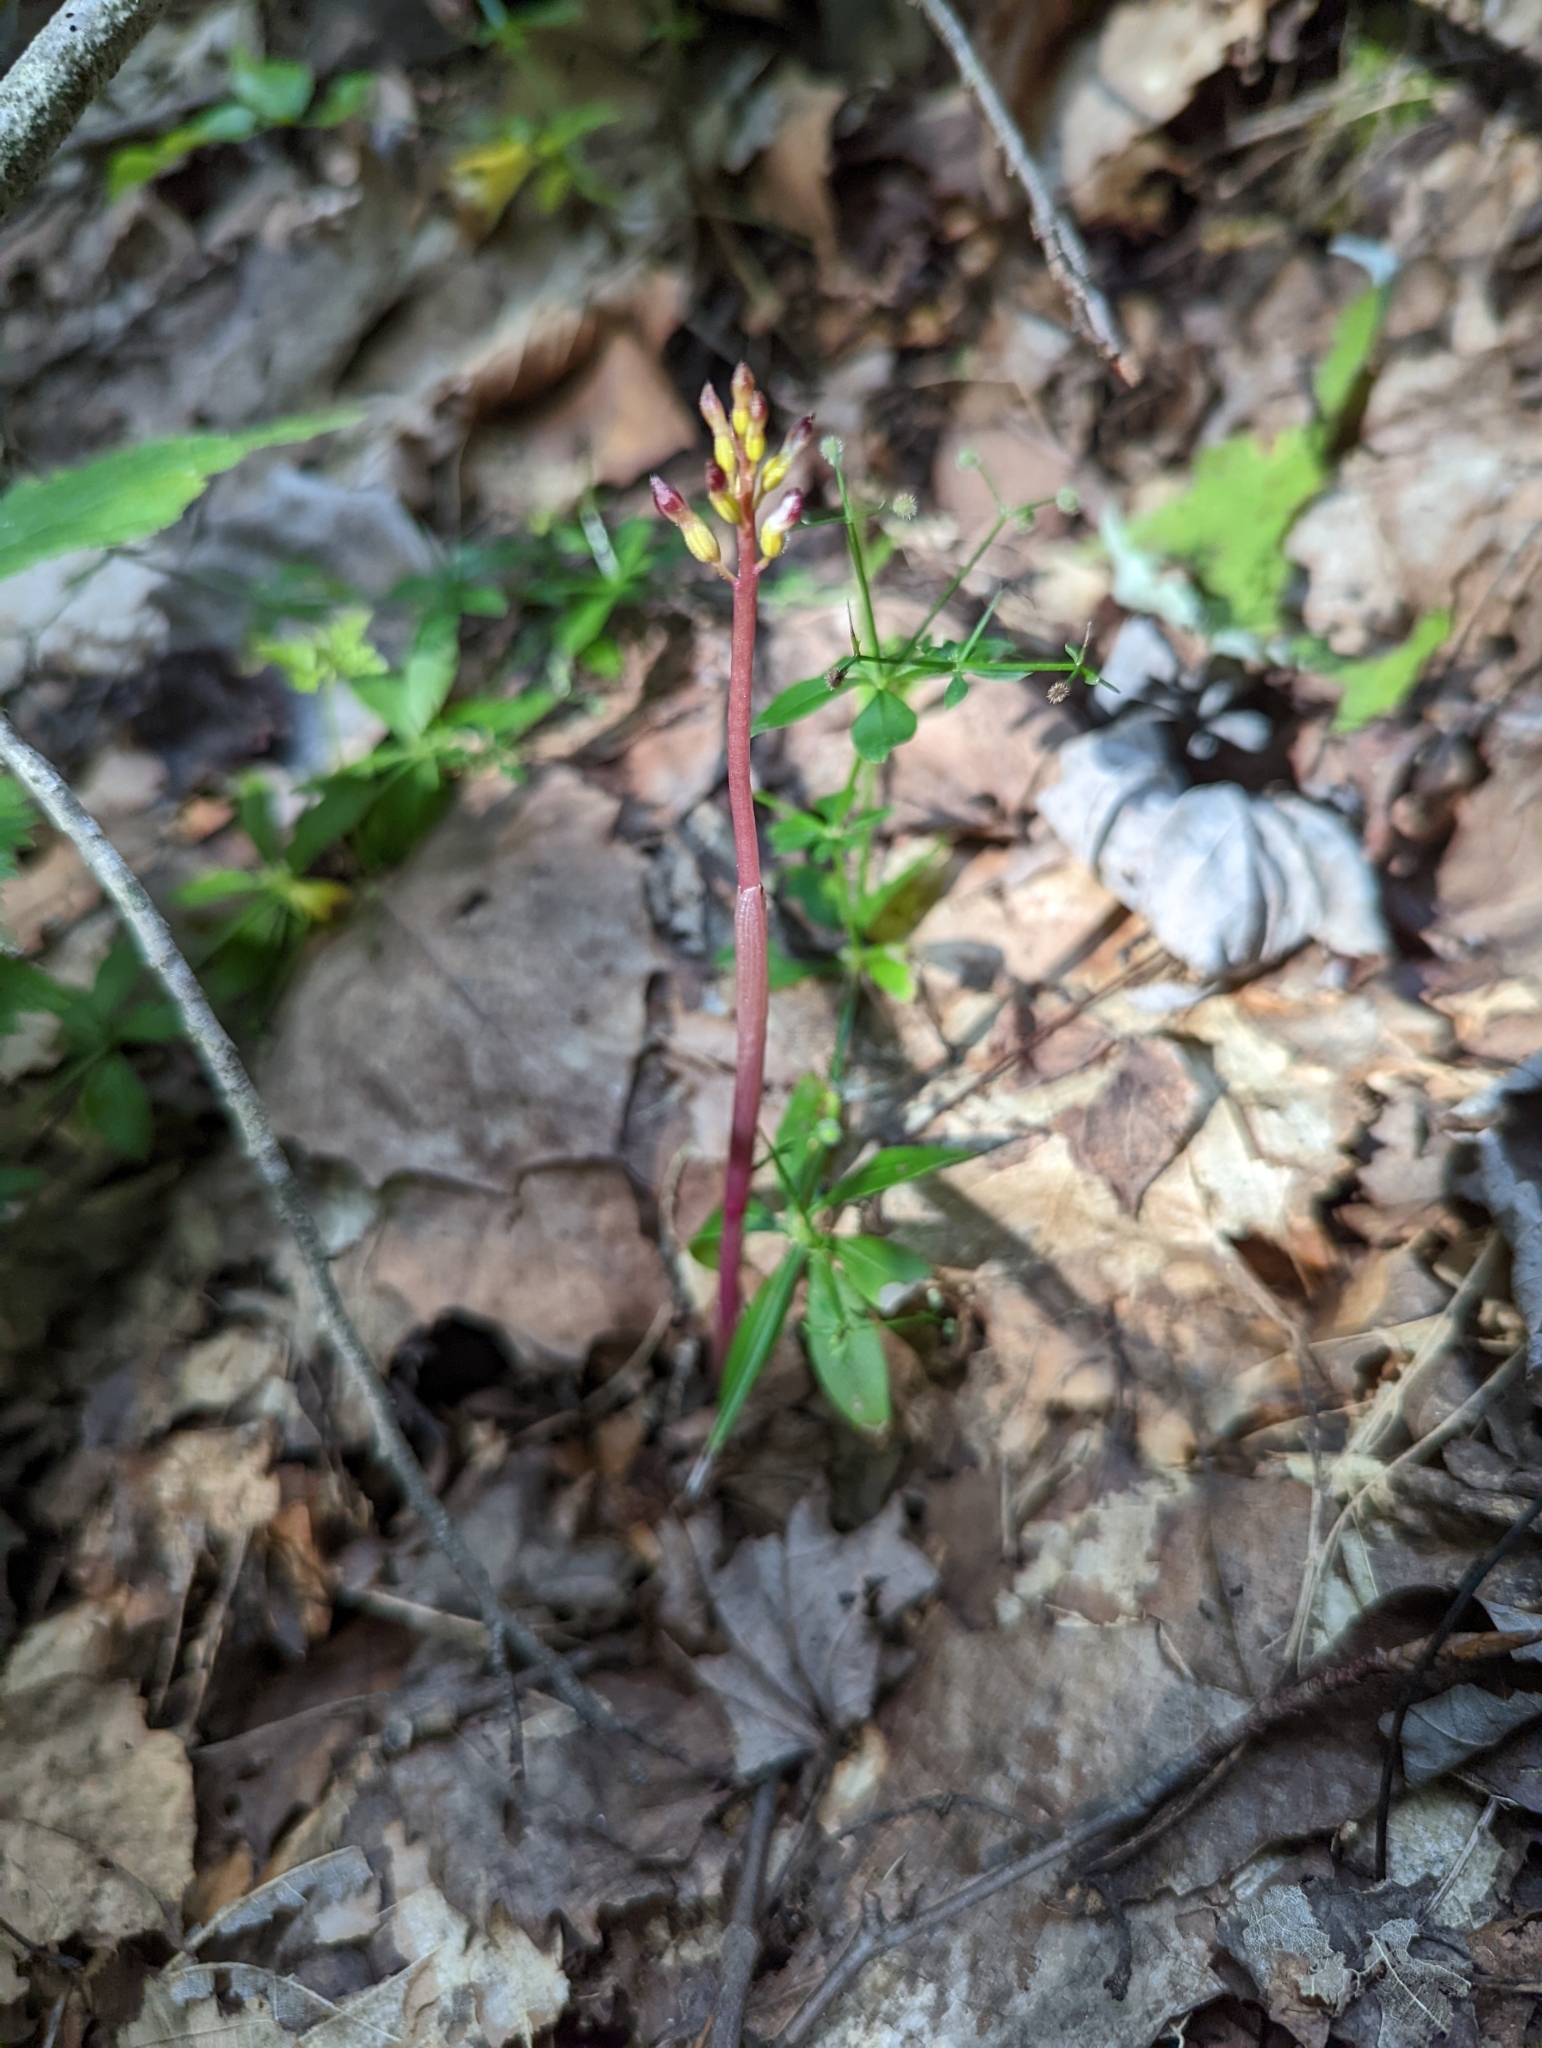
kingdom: Plantae
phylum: Tracheophyta
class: Liliopsida
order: Asparagales
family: Orchidaceae
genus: Corallorhiza
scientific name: Corallorhiza odontorhiza
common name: Autumn coralroot
